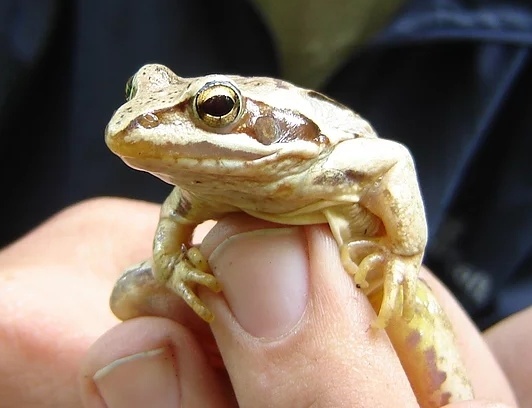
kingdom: Animalia
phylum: Chordata
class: Amphibia
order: Anura
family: Ranidae
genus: Rana
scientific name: Rana arvalis
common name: Moor frog
